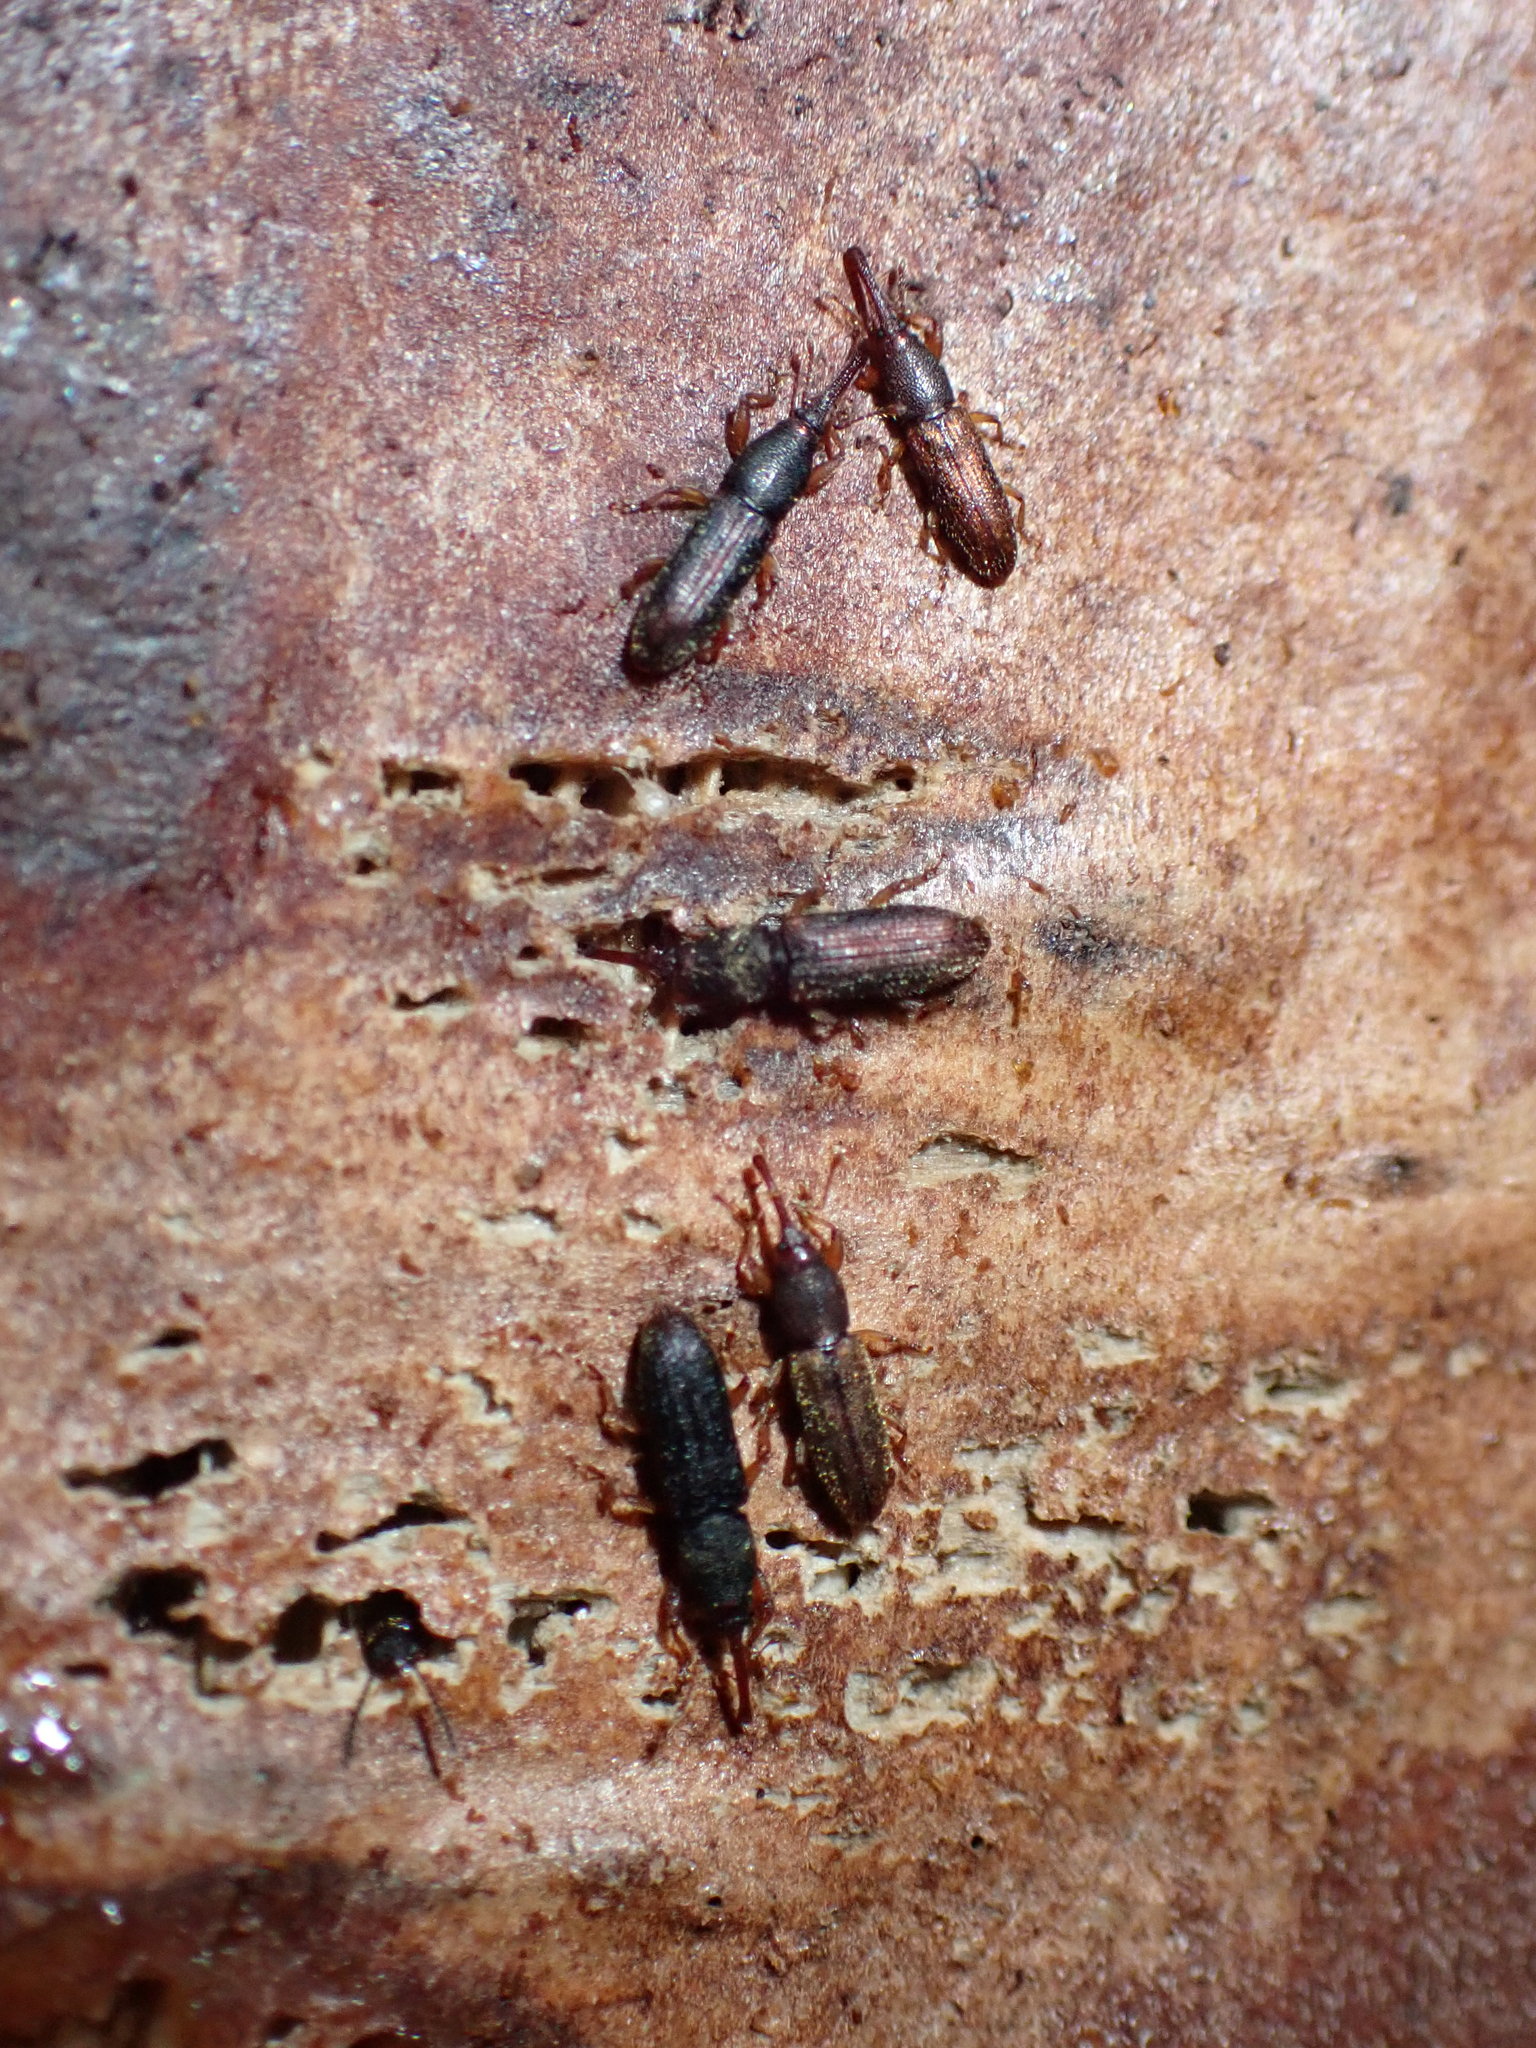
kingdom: Animalia
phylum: Arthropoda
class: Insecta
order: Coleoptera
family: Curculionidae
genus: Arecocryptus
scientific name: Arecocryptus bellus
